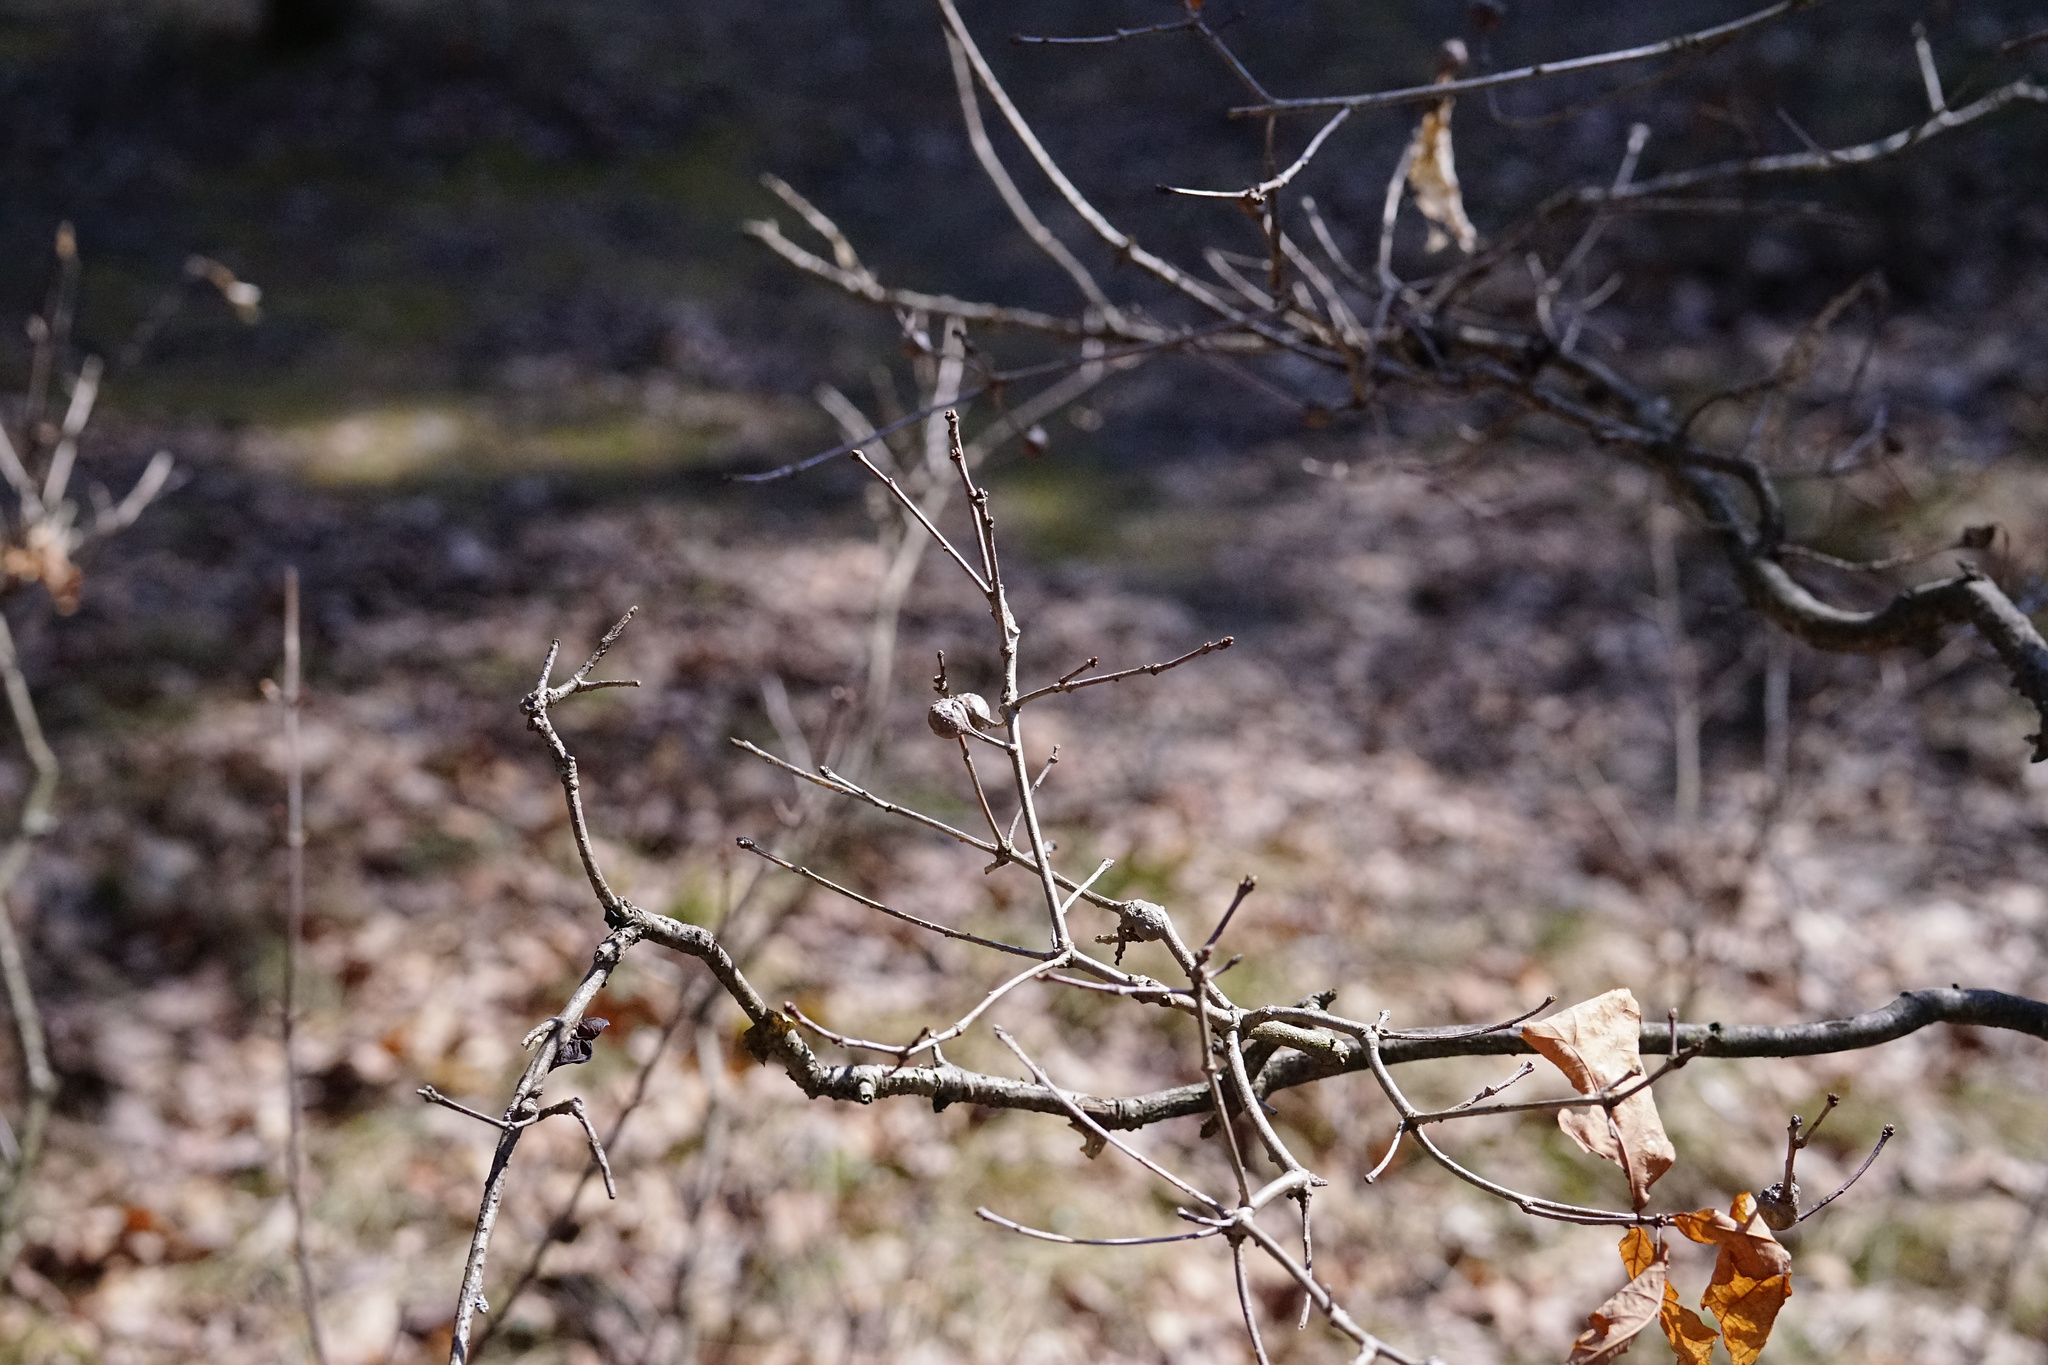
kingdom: Animalia
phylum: Arthropoda
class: Insecta
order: Hymenoptera
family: Cynipidae
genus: Callirhytis
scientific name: Callirhytis clavula
